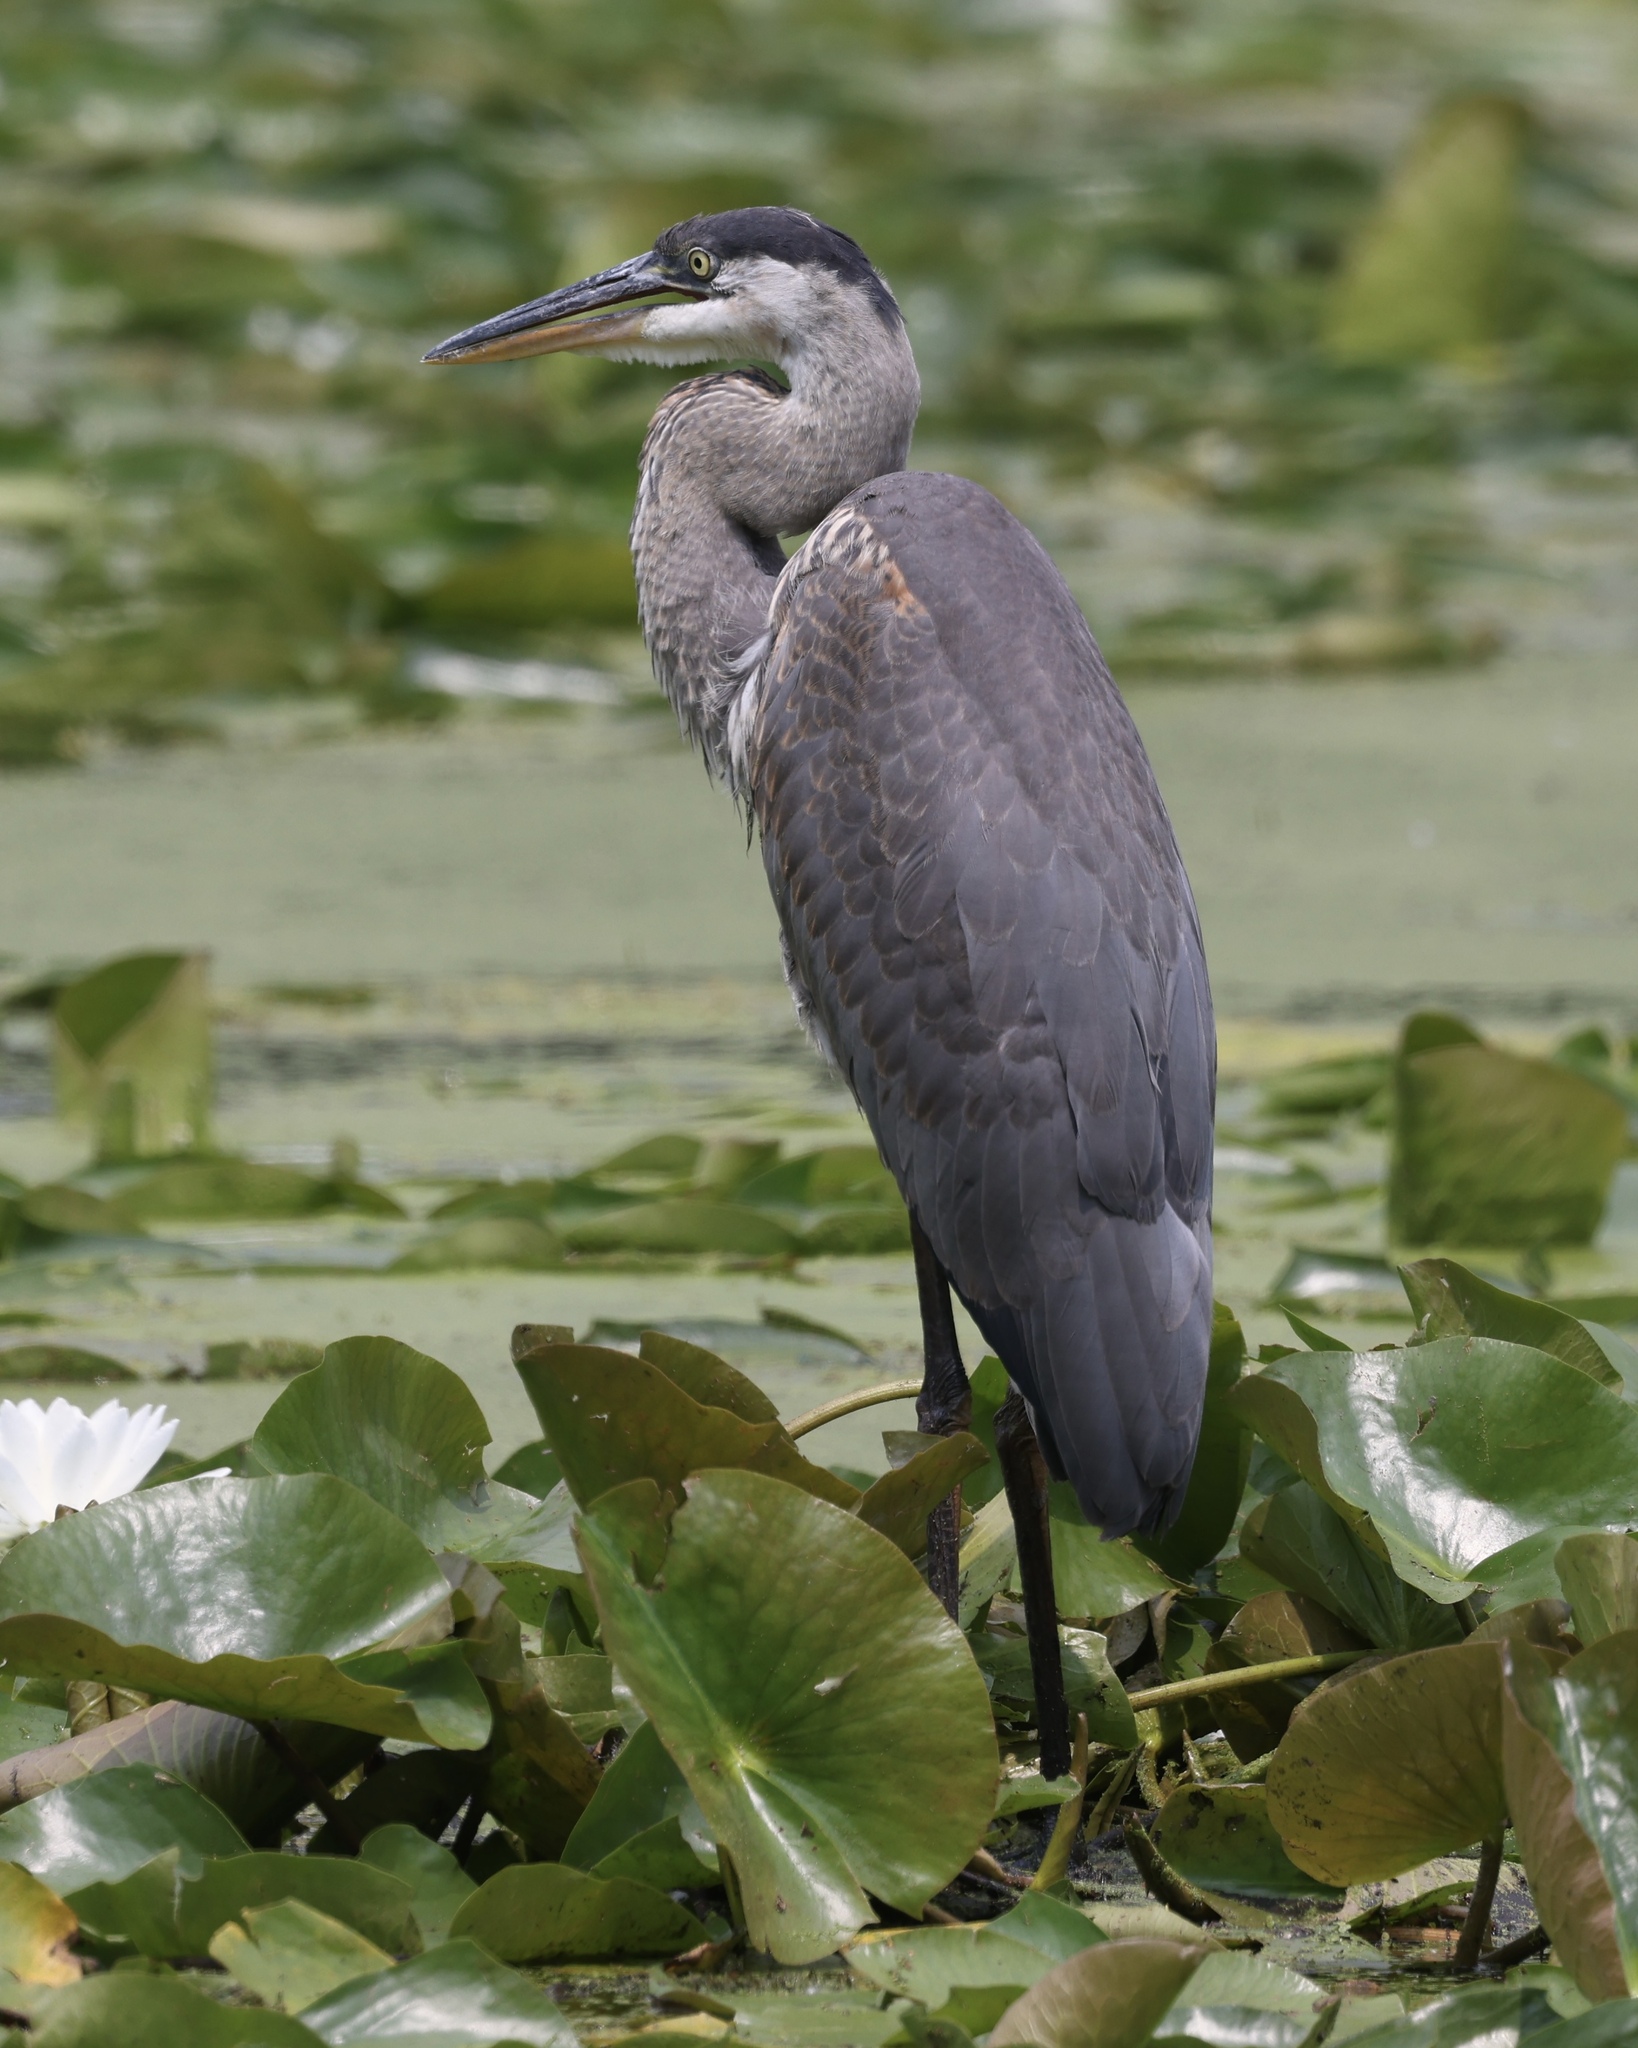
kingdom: Animalia
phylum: Chordata
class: Aves
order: Pelecaniformes
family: Ardeidae
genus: Ardea
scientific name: Ardea herodias
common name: Great blue heron
